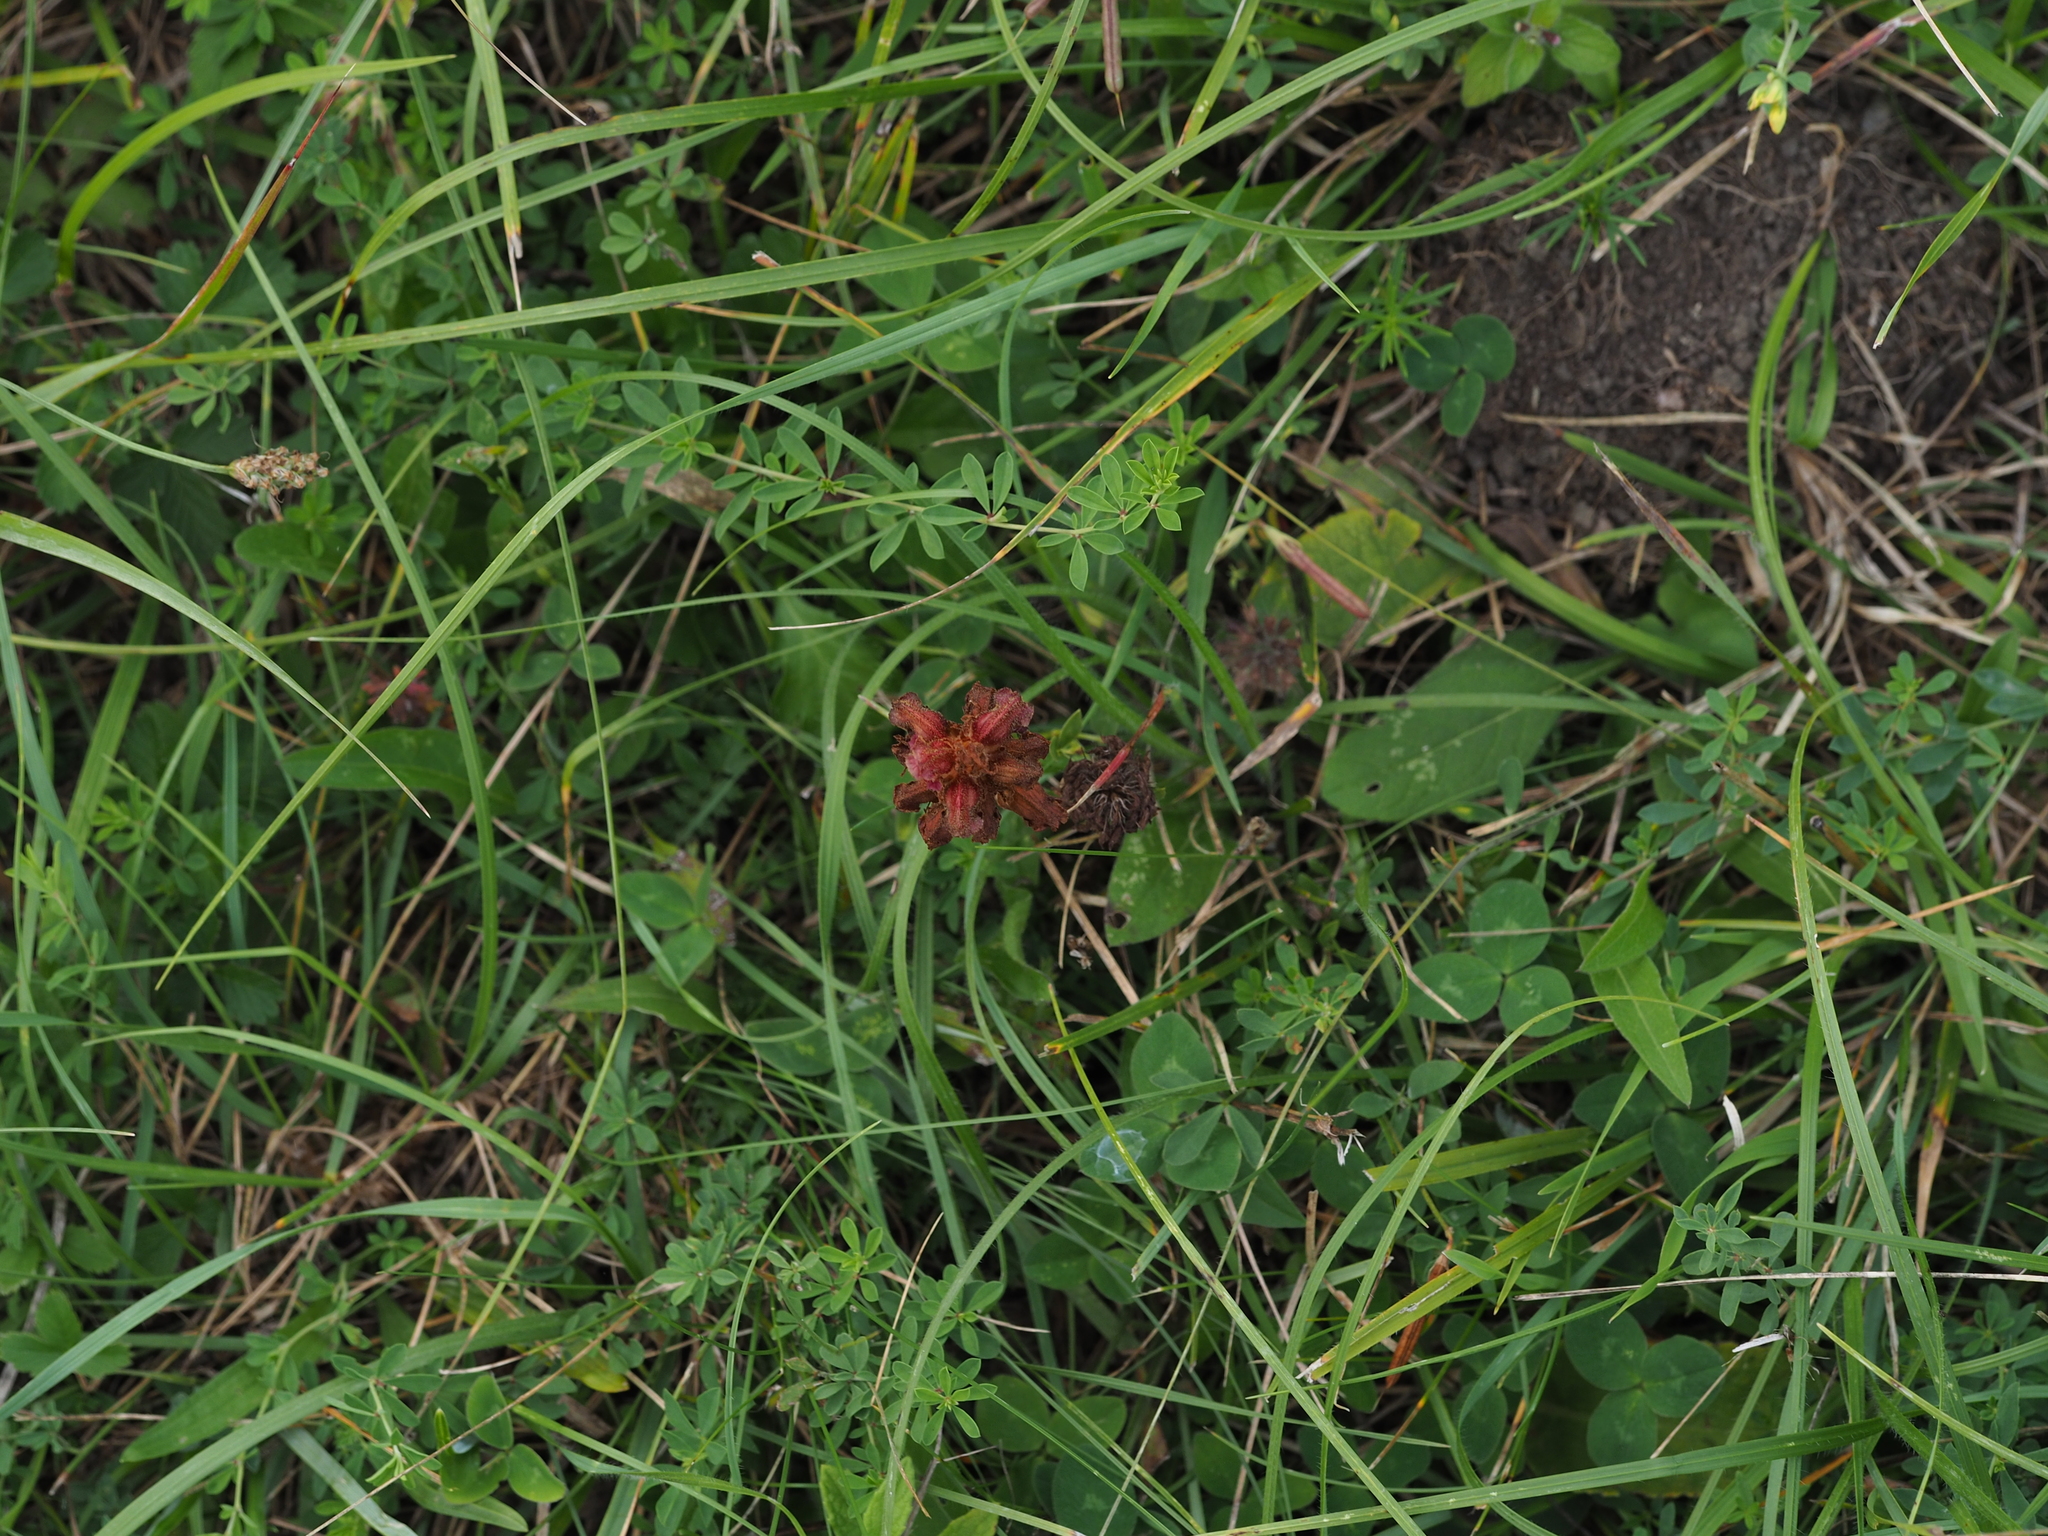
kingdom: Plantae
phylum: Tracheophyta
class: Magnoliopsida
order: Lamiales
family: Orobanchaceae
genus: Orobanche
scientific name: Orobanche gracilis
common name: Slender broomrape
